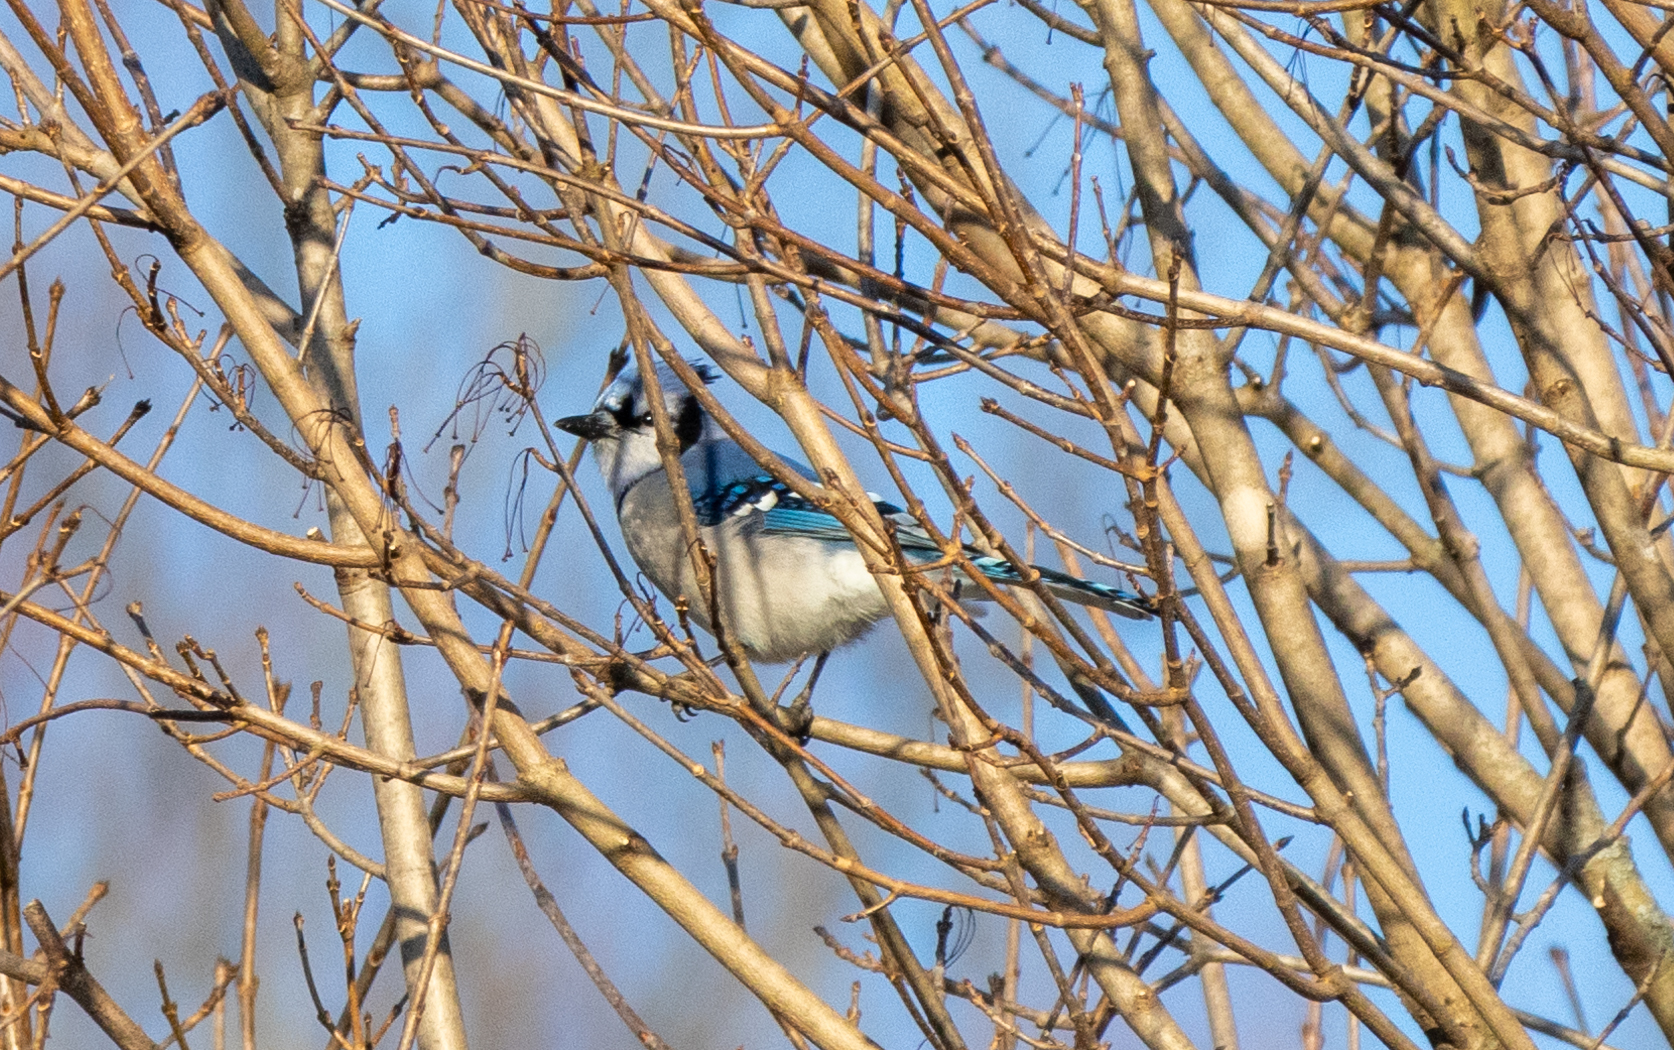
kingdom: Animalia
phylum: Chordata
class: Aves
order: Passeriformes
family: Corvidae
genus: Cyanocitta
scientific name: Cyanocitta cristata
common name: Blue jay
